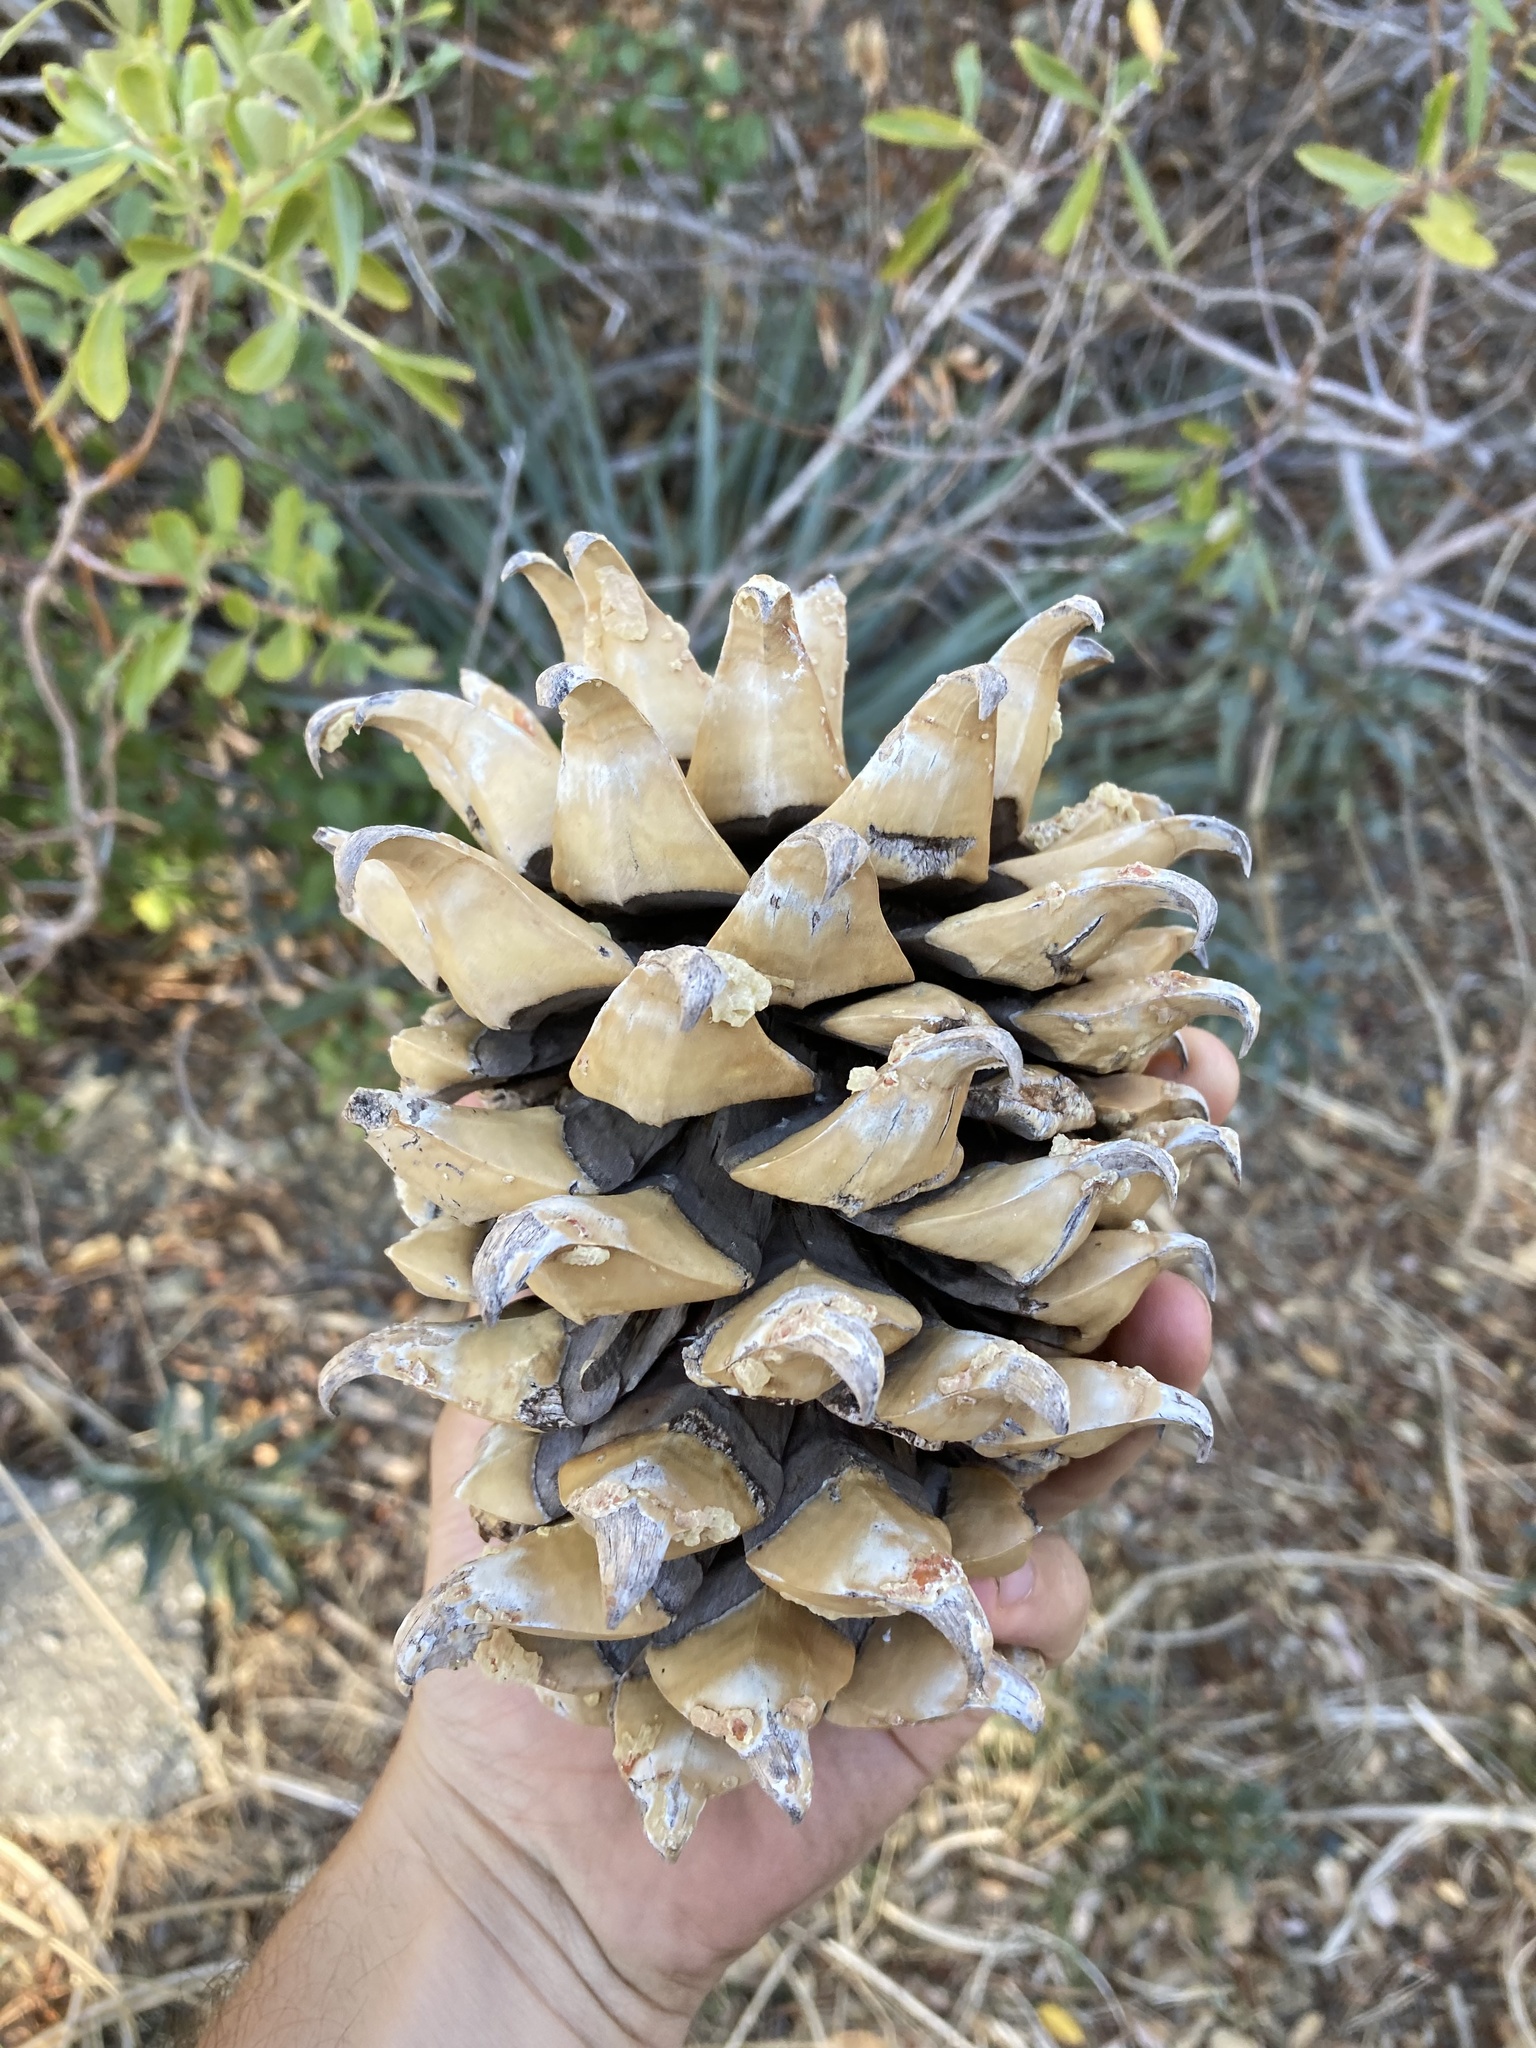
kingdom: Plantae
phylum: Tracheophyta
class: Pinopsida
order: Pinales
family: Pinaceae
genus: Pinus
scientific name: Pinus coulteri
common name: Coulter pine
